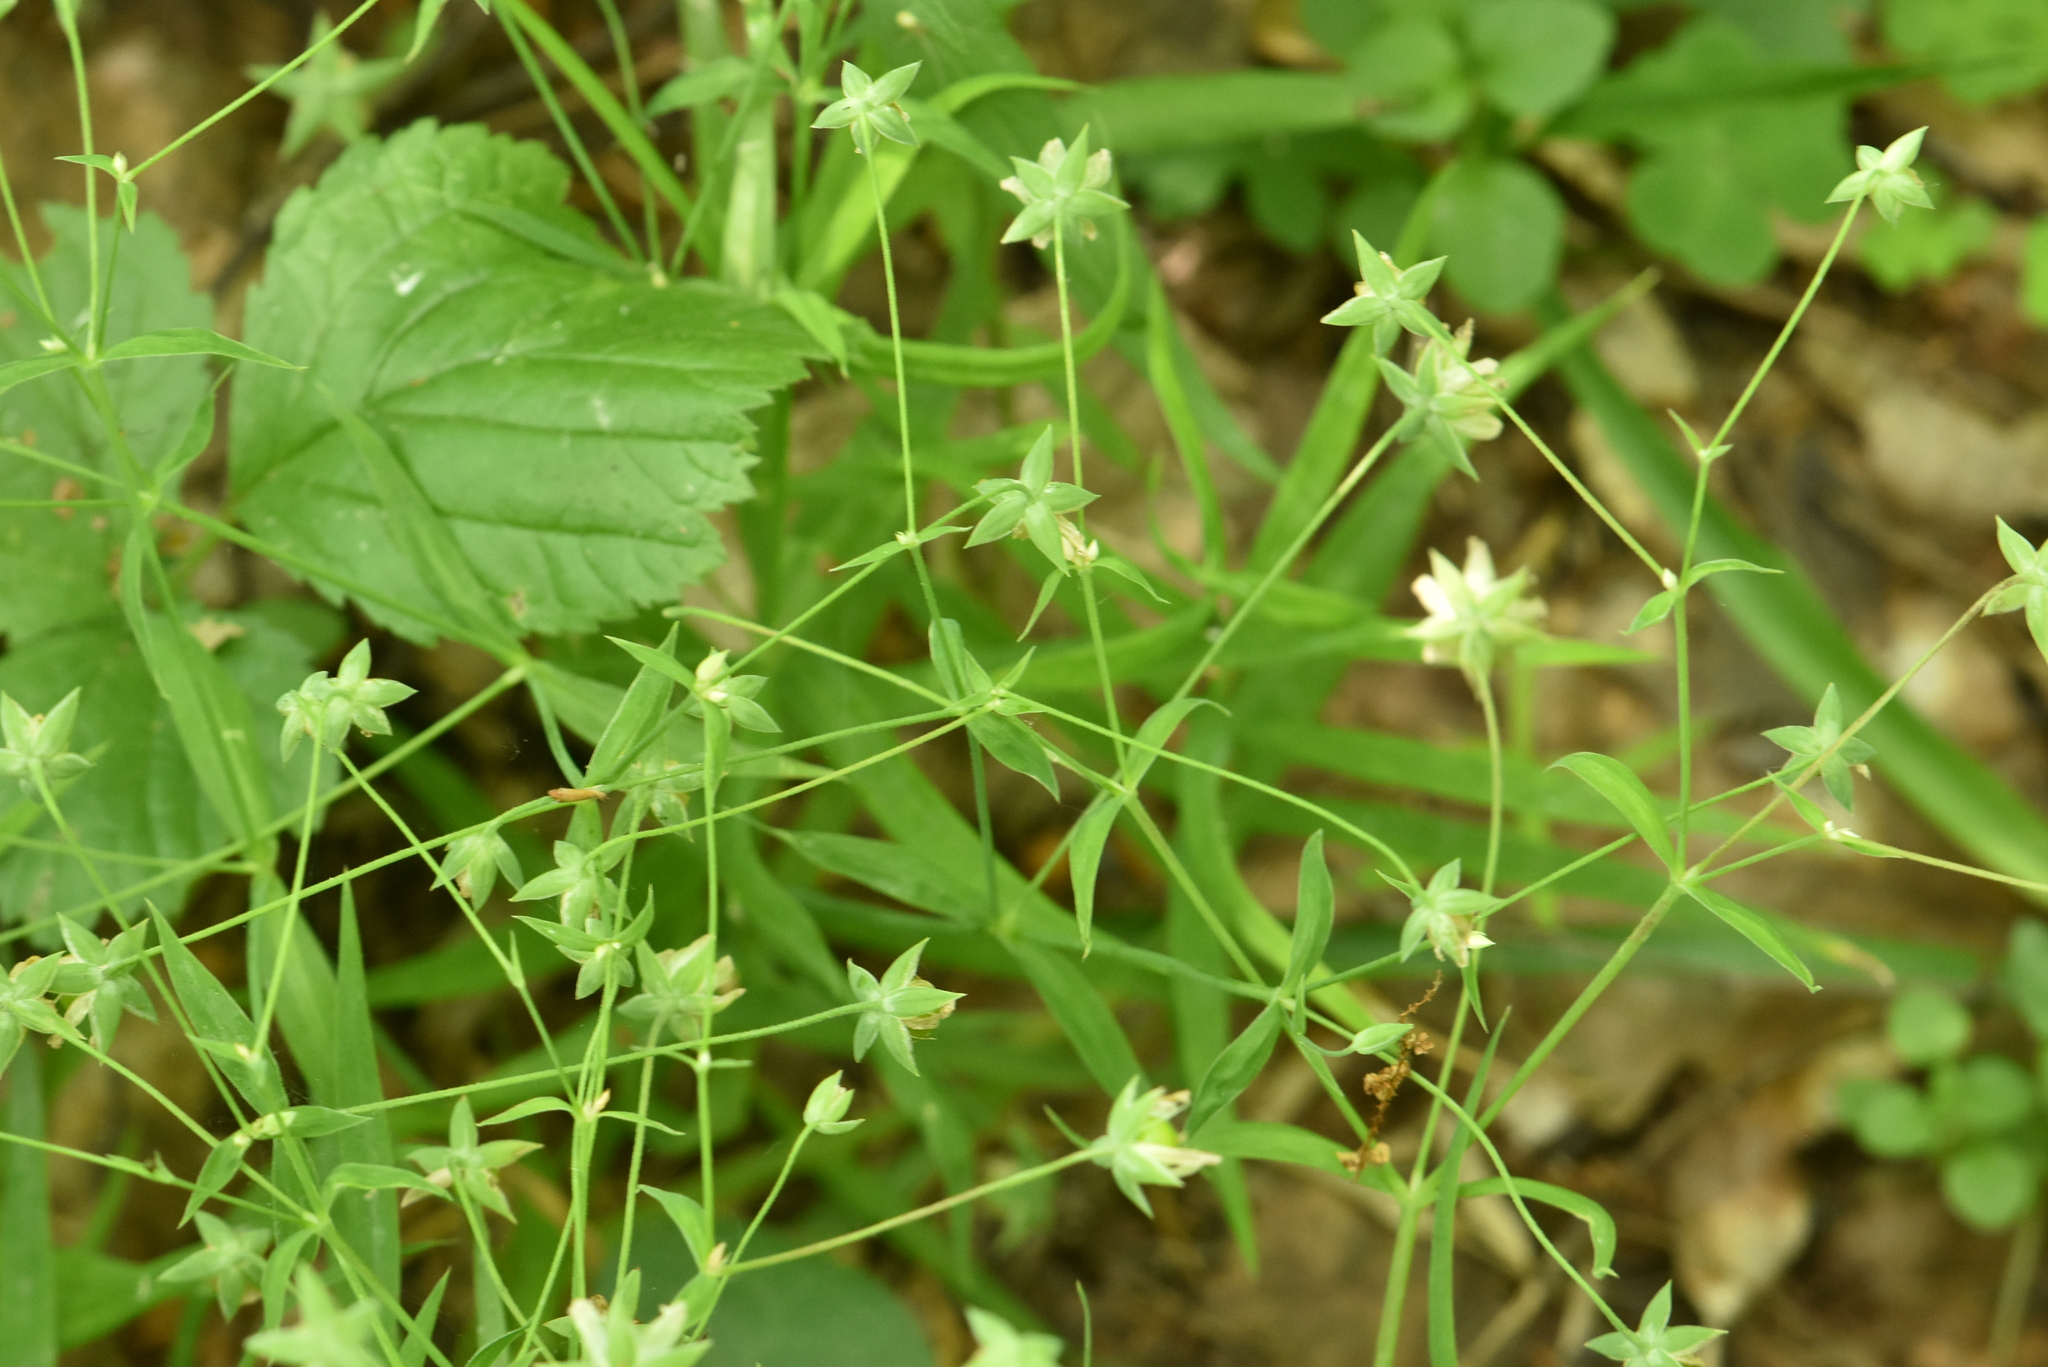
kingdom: Plantae
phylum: Tracheophyta
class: Magnoliopsida
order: Caryophyllales
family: Caryophyllaceae
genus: Rabelera
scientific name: Rabelera holostea
